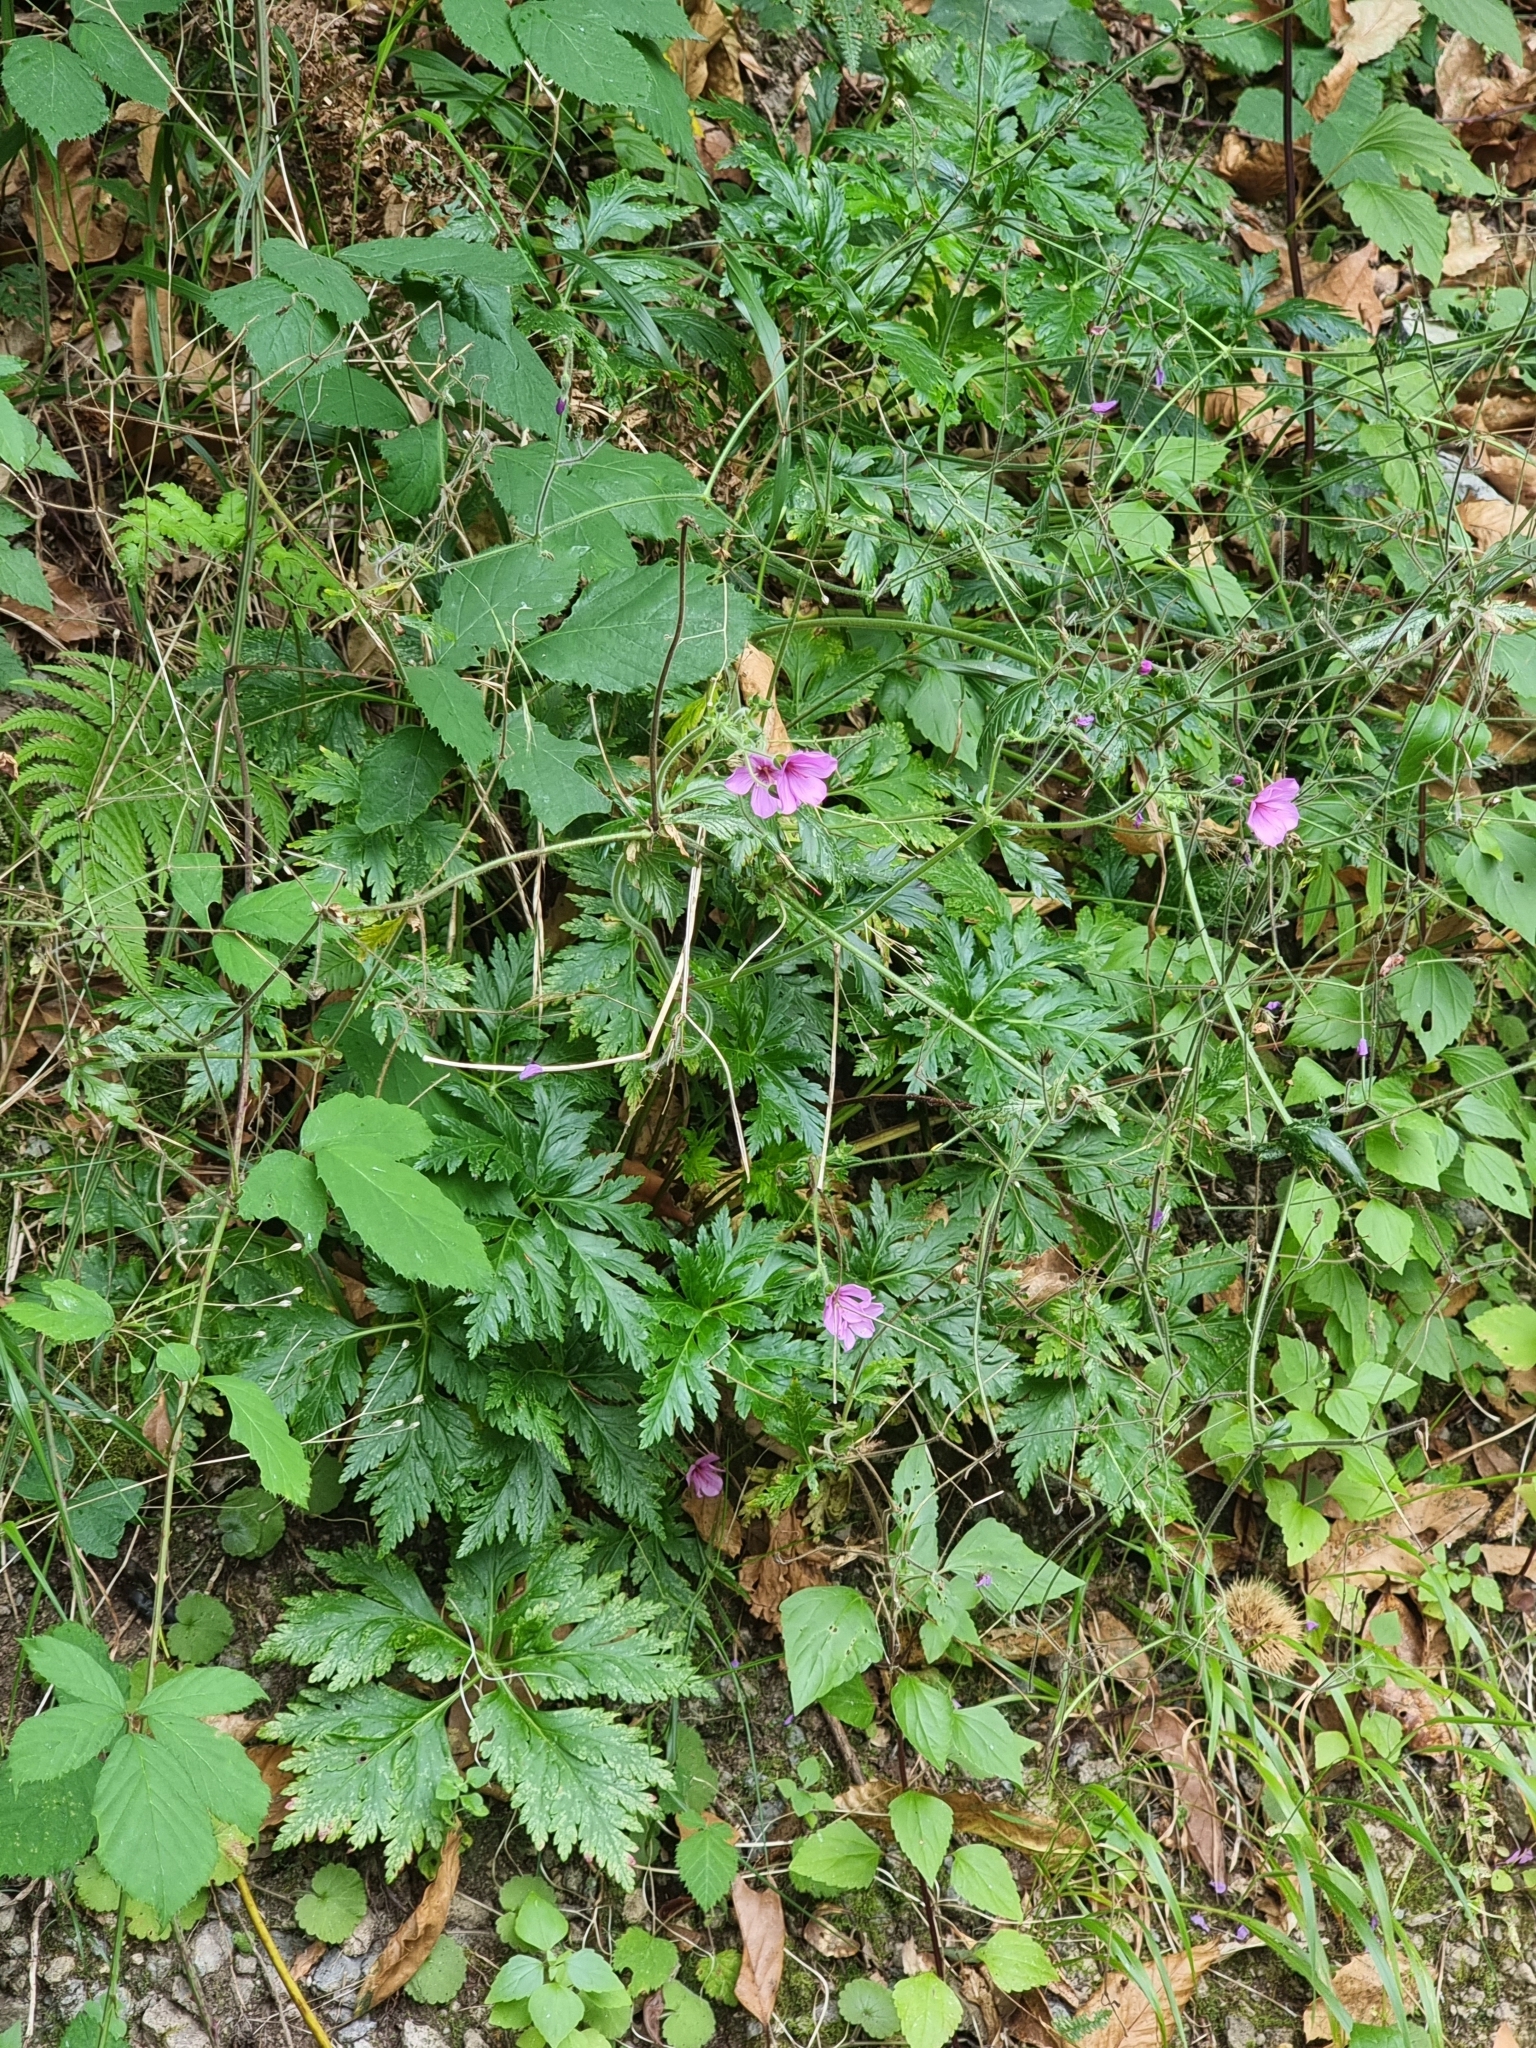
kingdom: Plantae
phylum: Tracheophyta
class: Magnoliopsida
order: Geraniales
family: Geraniaceae
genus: Geranium
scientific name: Geranium palmatum
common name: Canary island geranium
